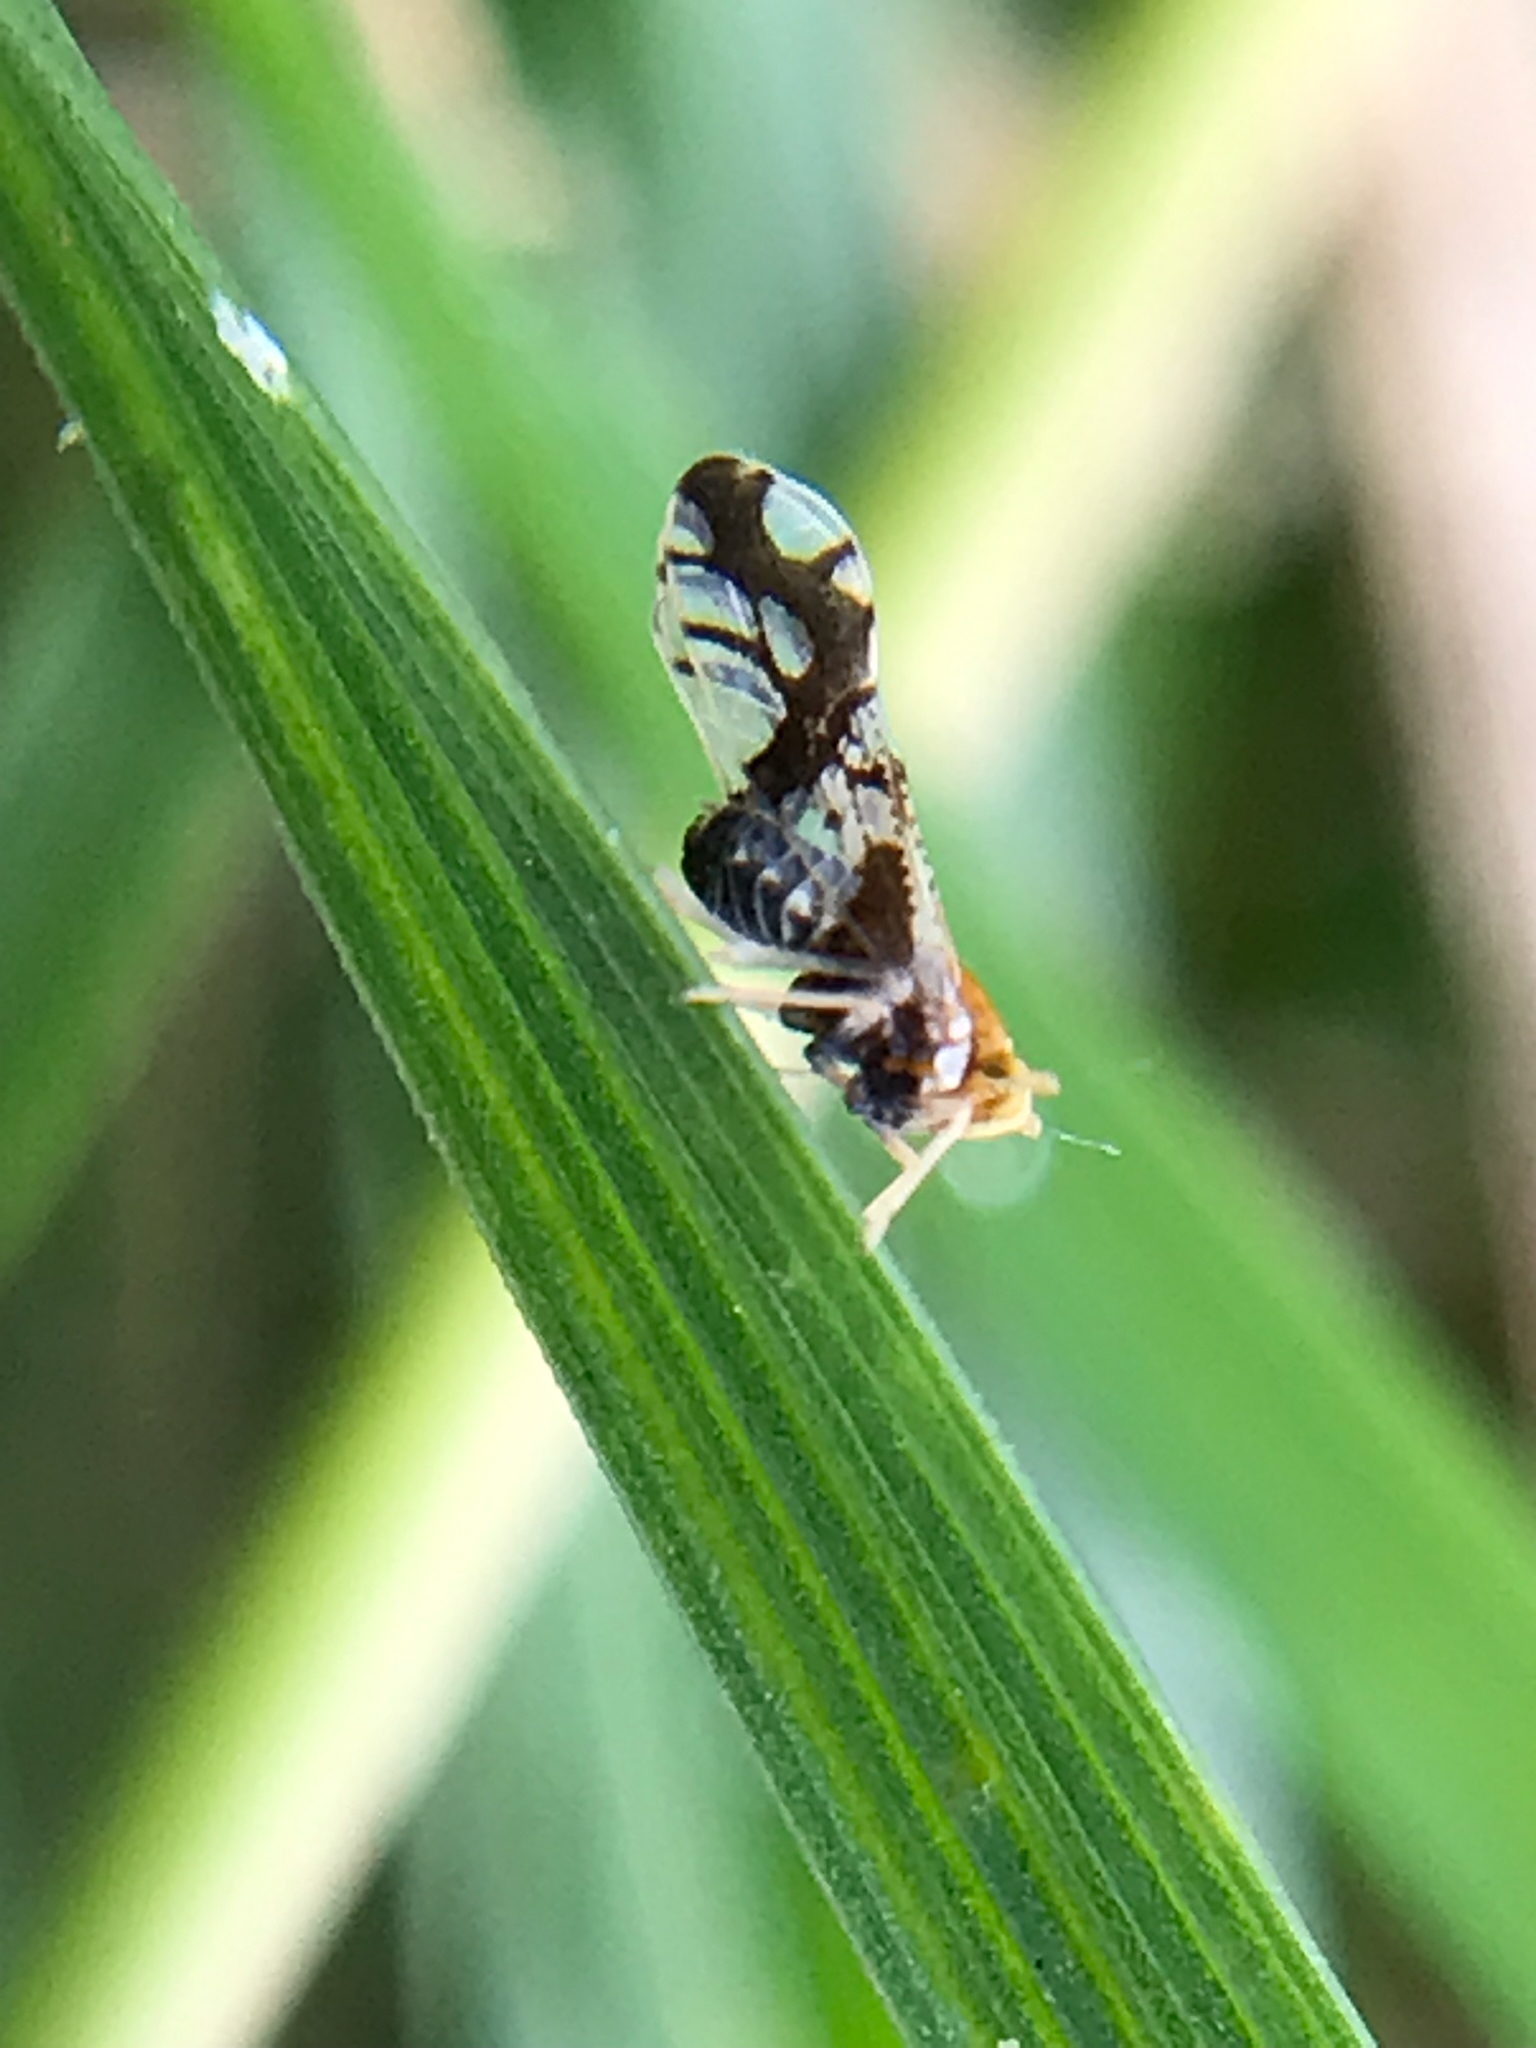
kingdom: Animalia
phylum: Arthropoda
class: Insecta
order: Hemiptera
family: Delphacidae
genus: Liburniella
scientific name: Liburniella ornata
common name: Ornate planthopper
